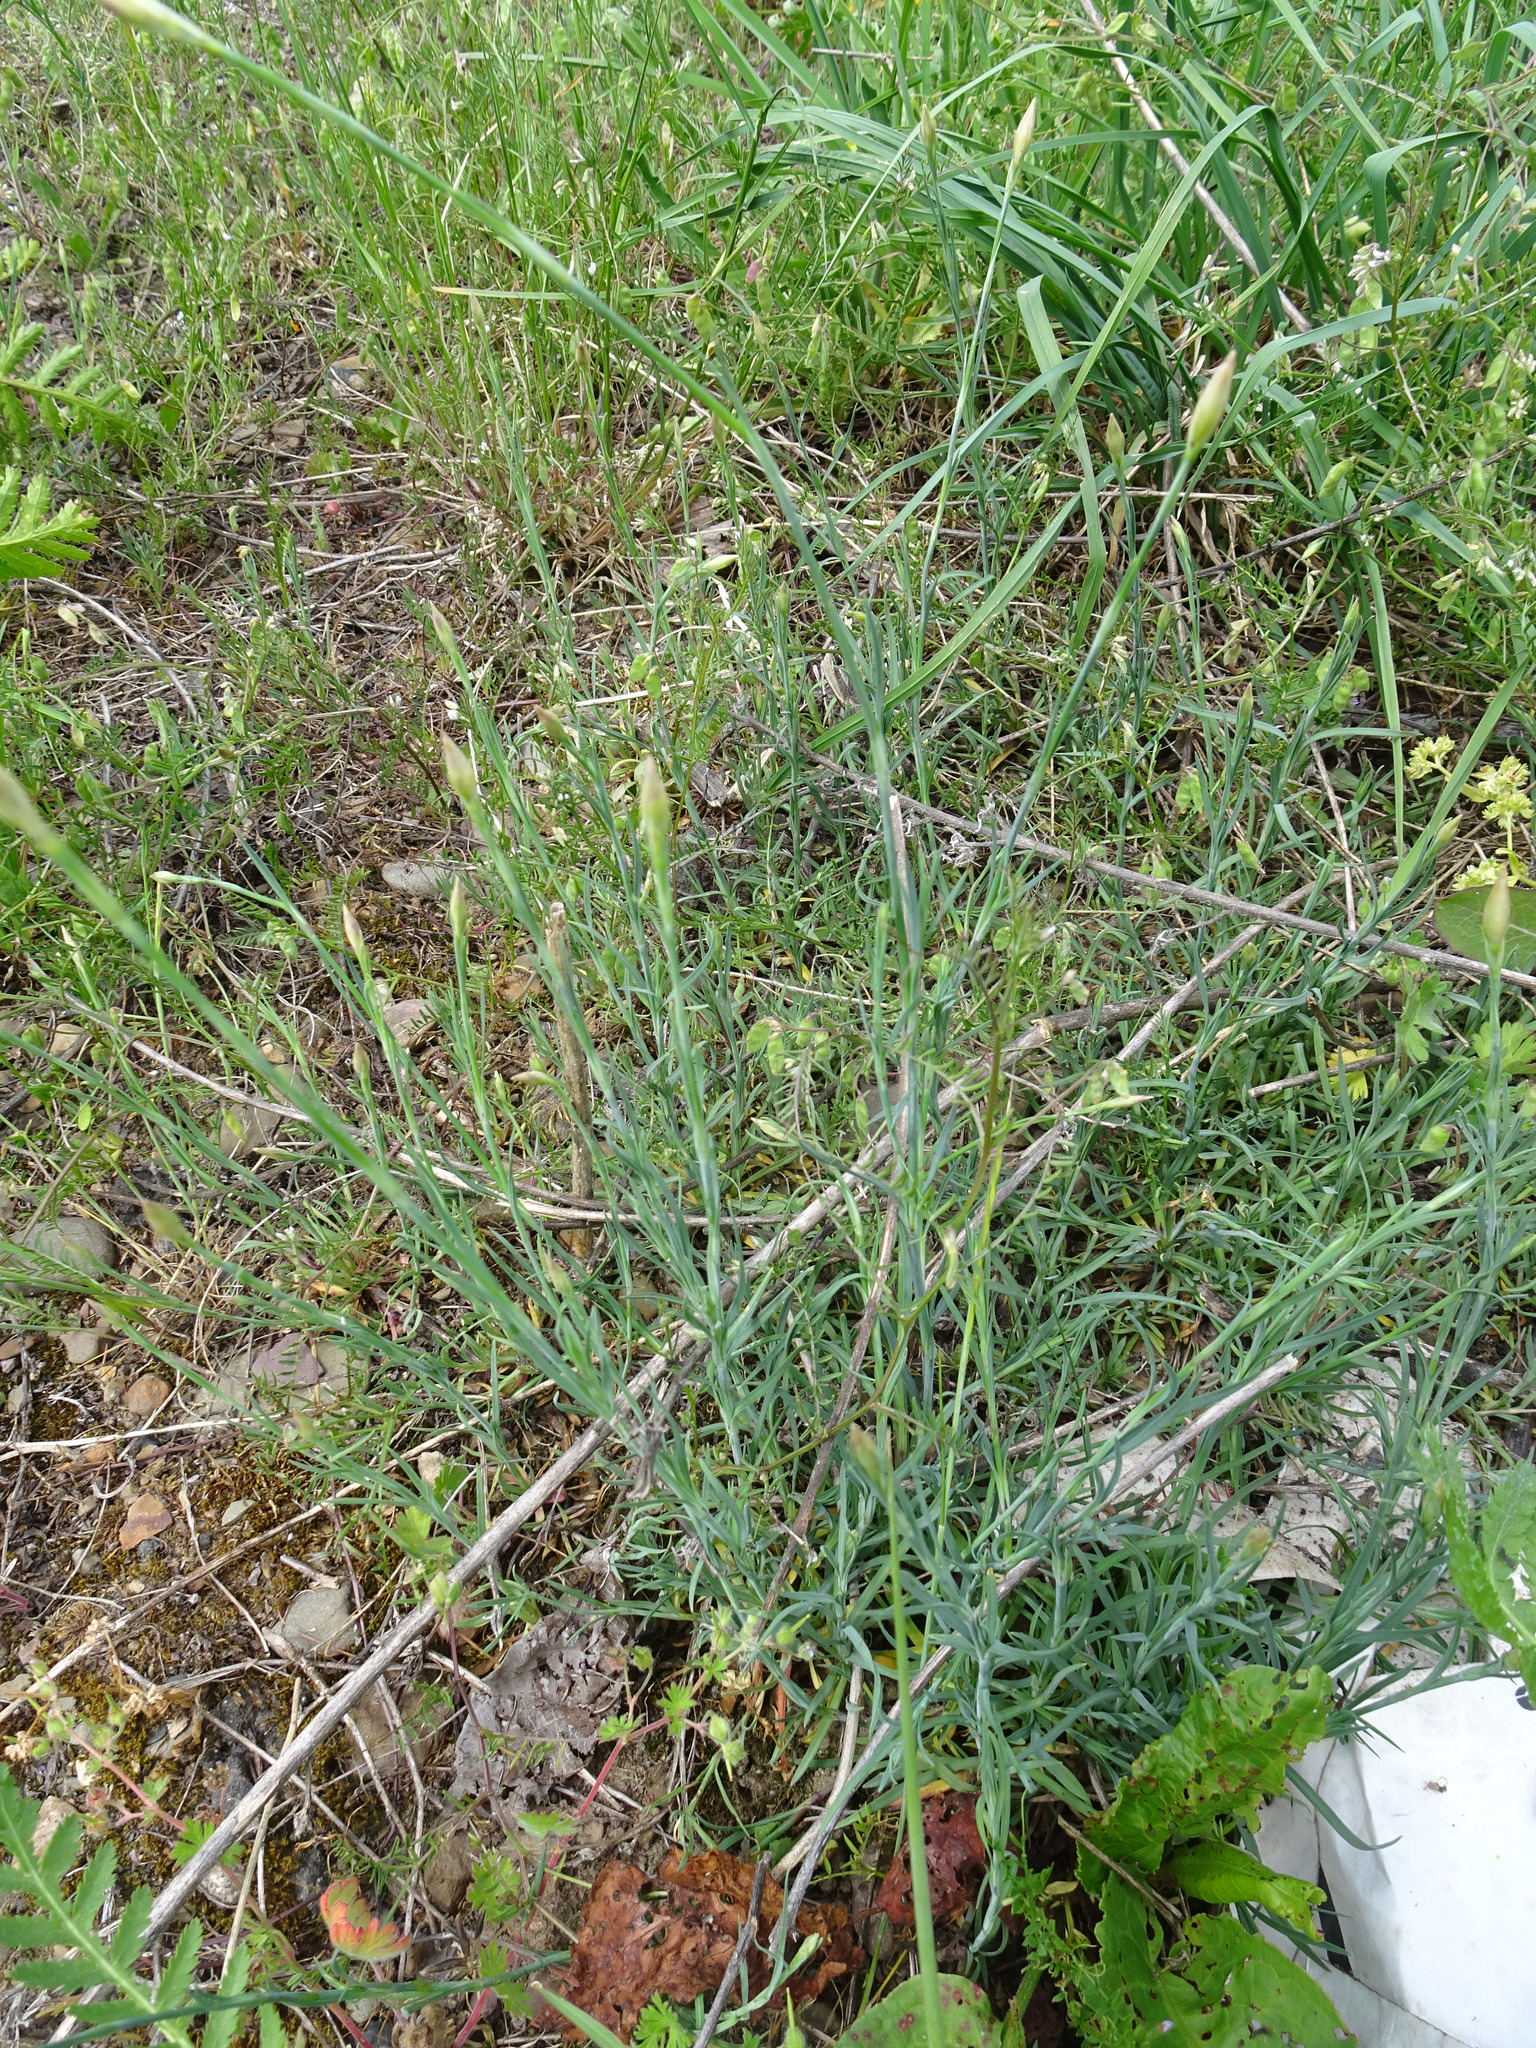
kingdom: Plantae
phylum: Tracheophyta
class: Magnoliopsida
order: Caryophyllales
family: Caryophyllaceae
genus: Dianthus
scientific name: Dianthus deltoides
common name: Maiden pink
